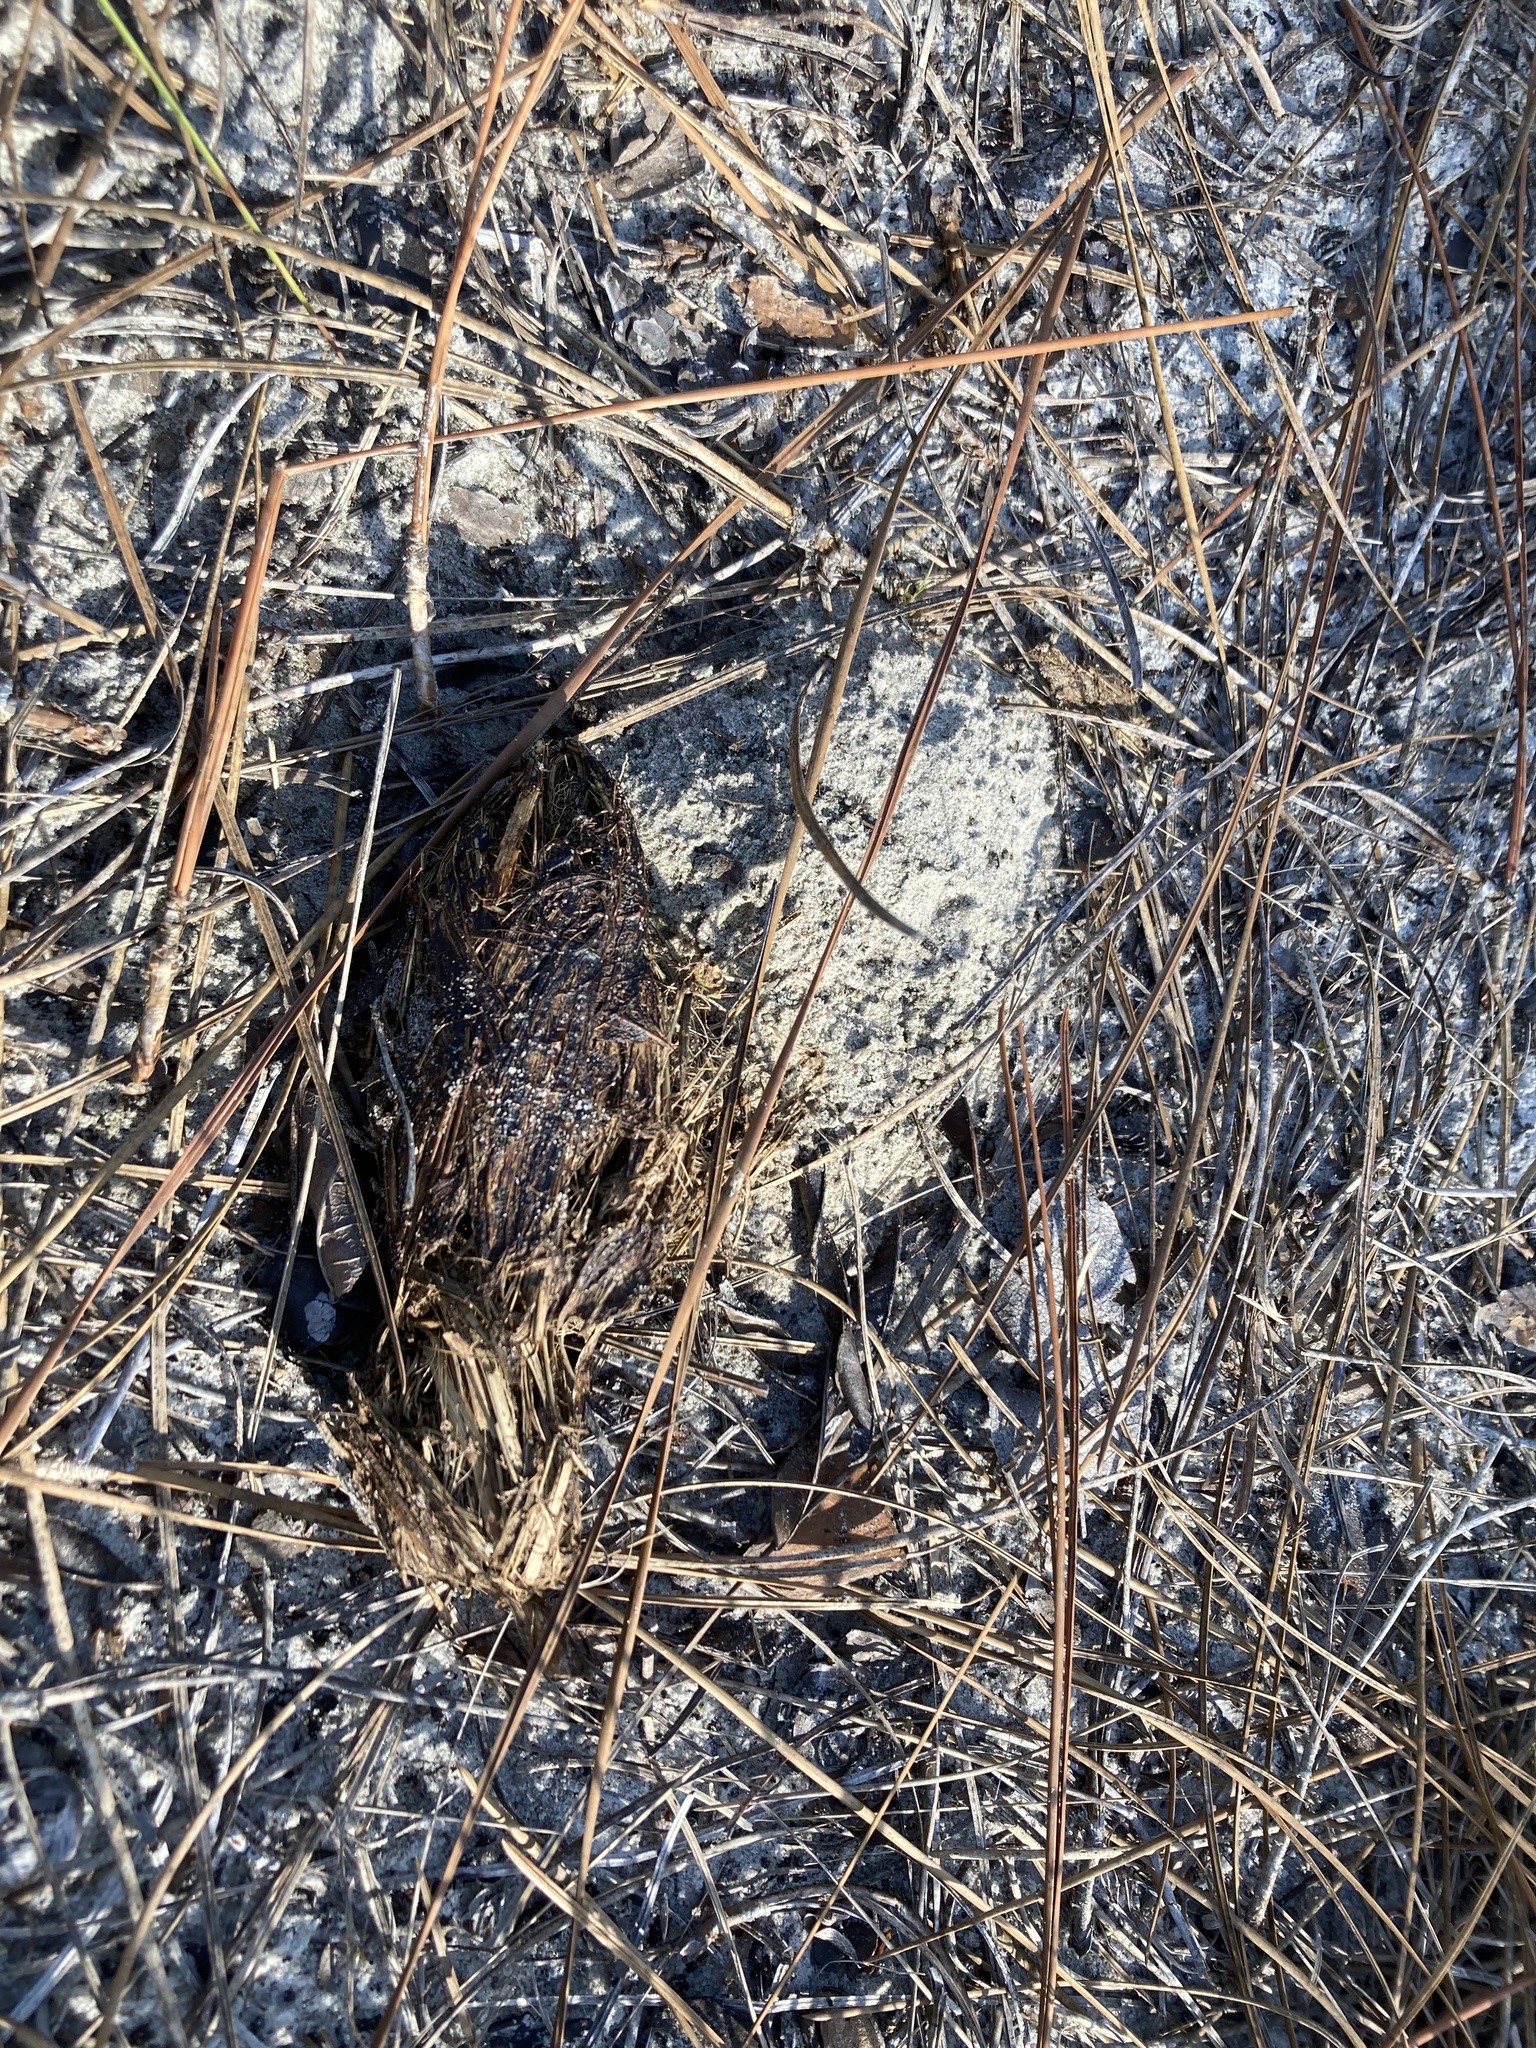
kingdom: Animalia
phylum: Chordata
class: Testudines
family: Testudinidae
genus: Gopherus
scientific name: Gopherus polyphemus
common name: Florida gopher tortoise
